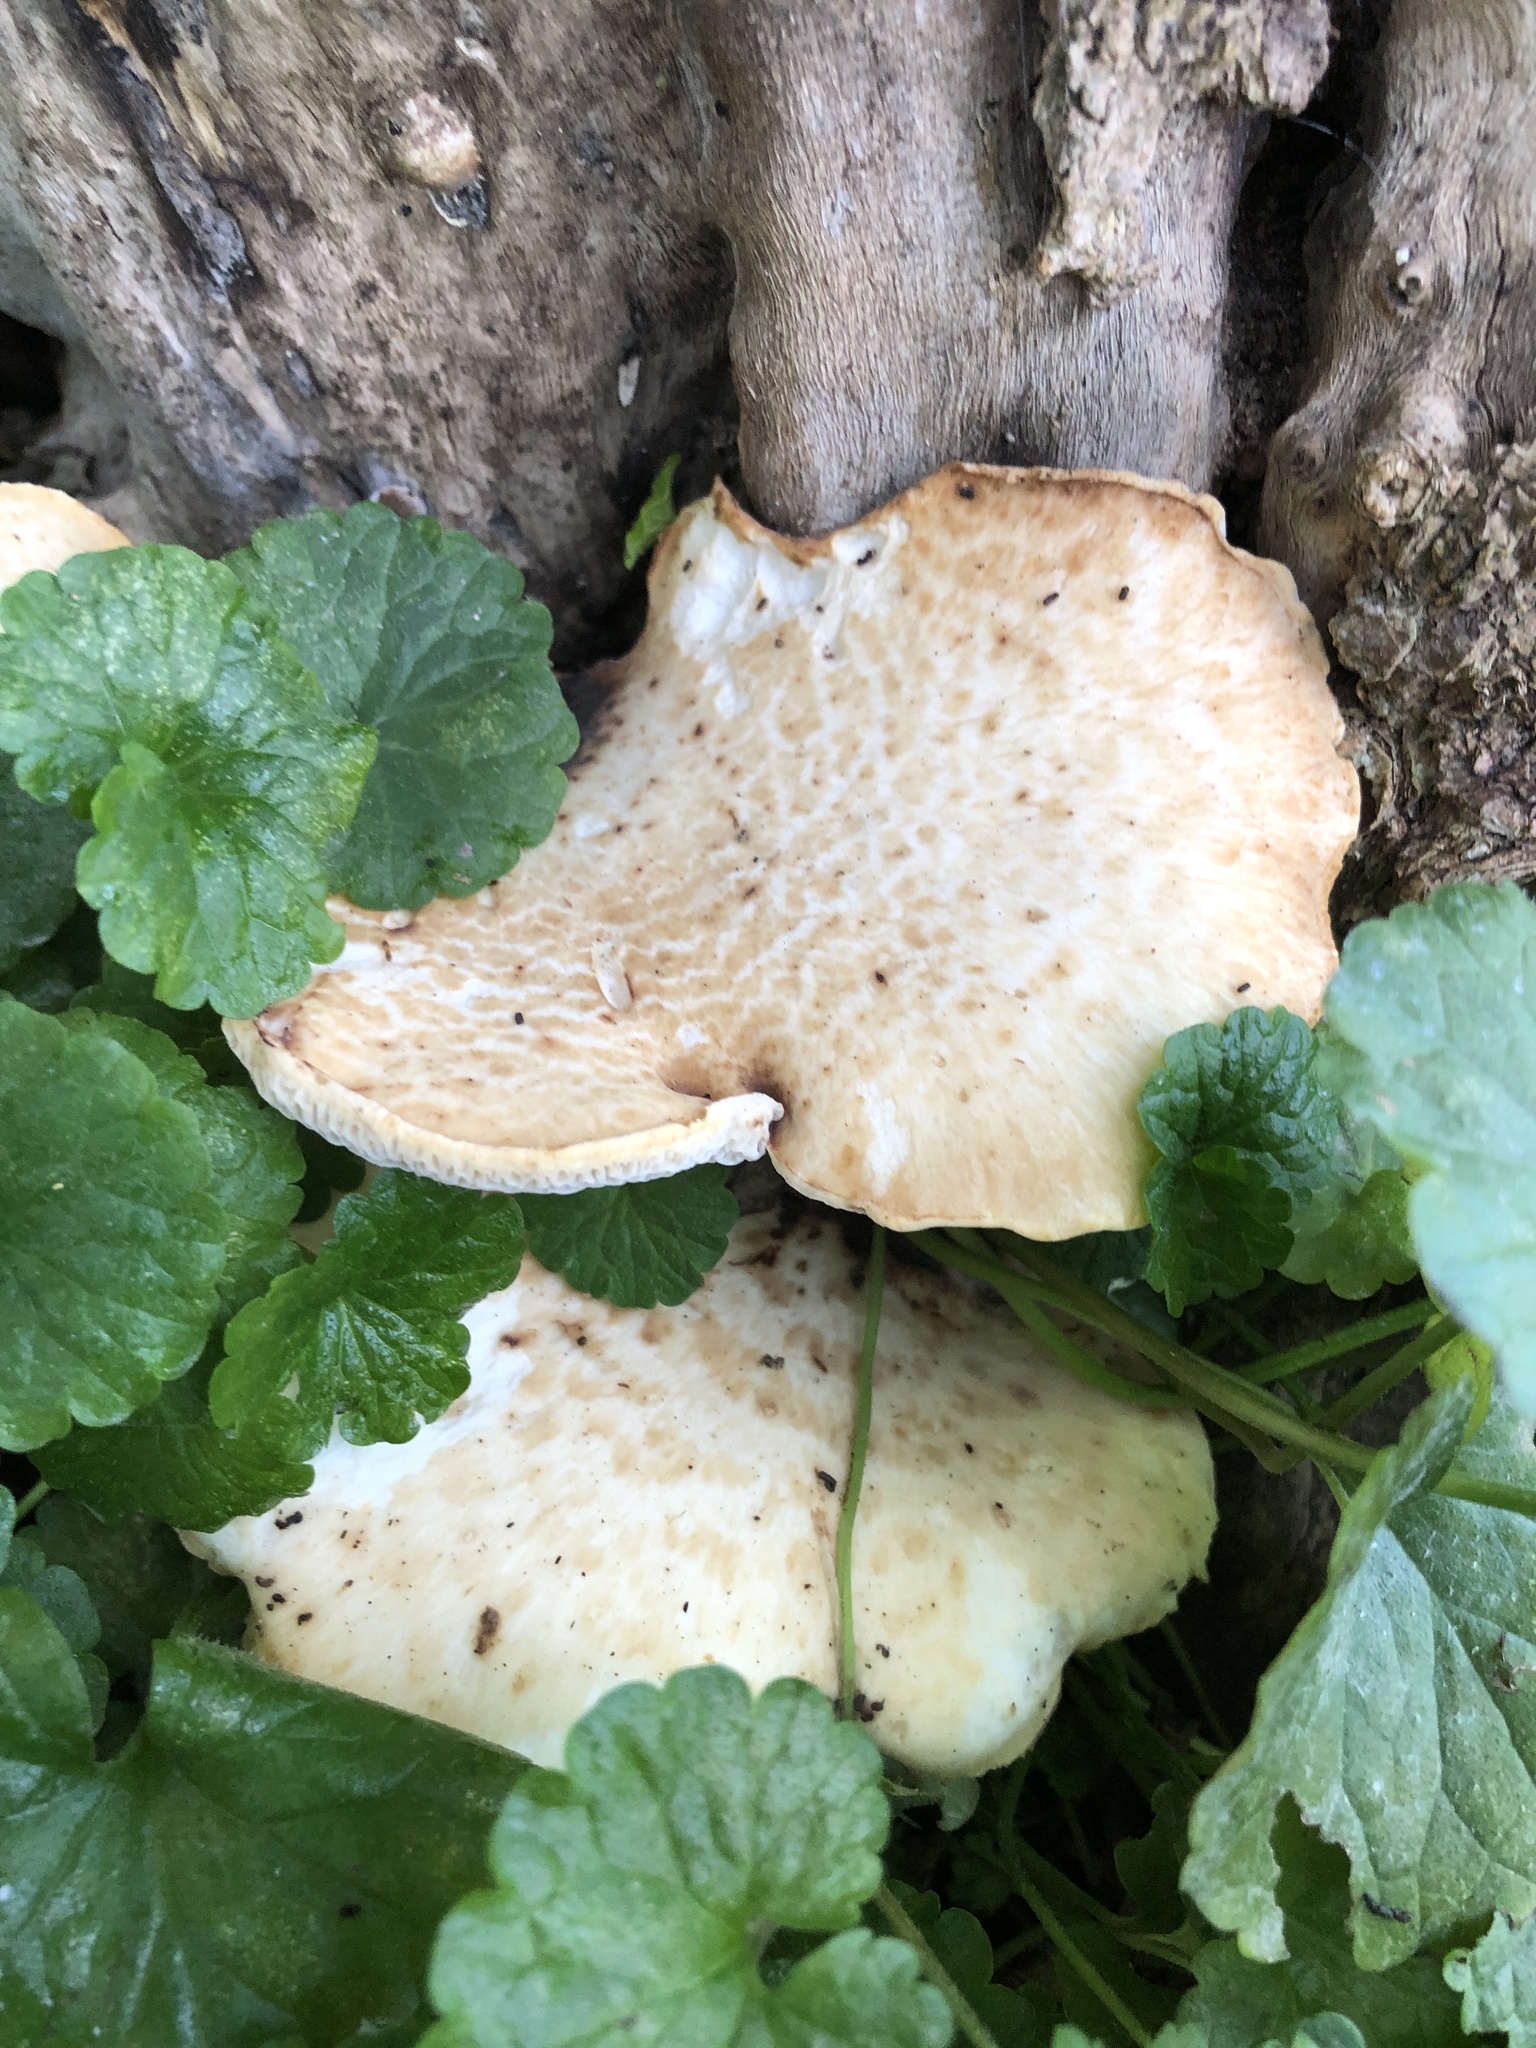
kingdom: Fungi
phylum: Basidiomycota
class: Agaricomycetes
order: Polyporales
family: Polyporaceae
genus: Cerioporus
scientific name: Cerioporus squamosus
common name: Dryad's saddle
